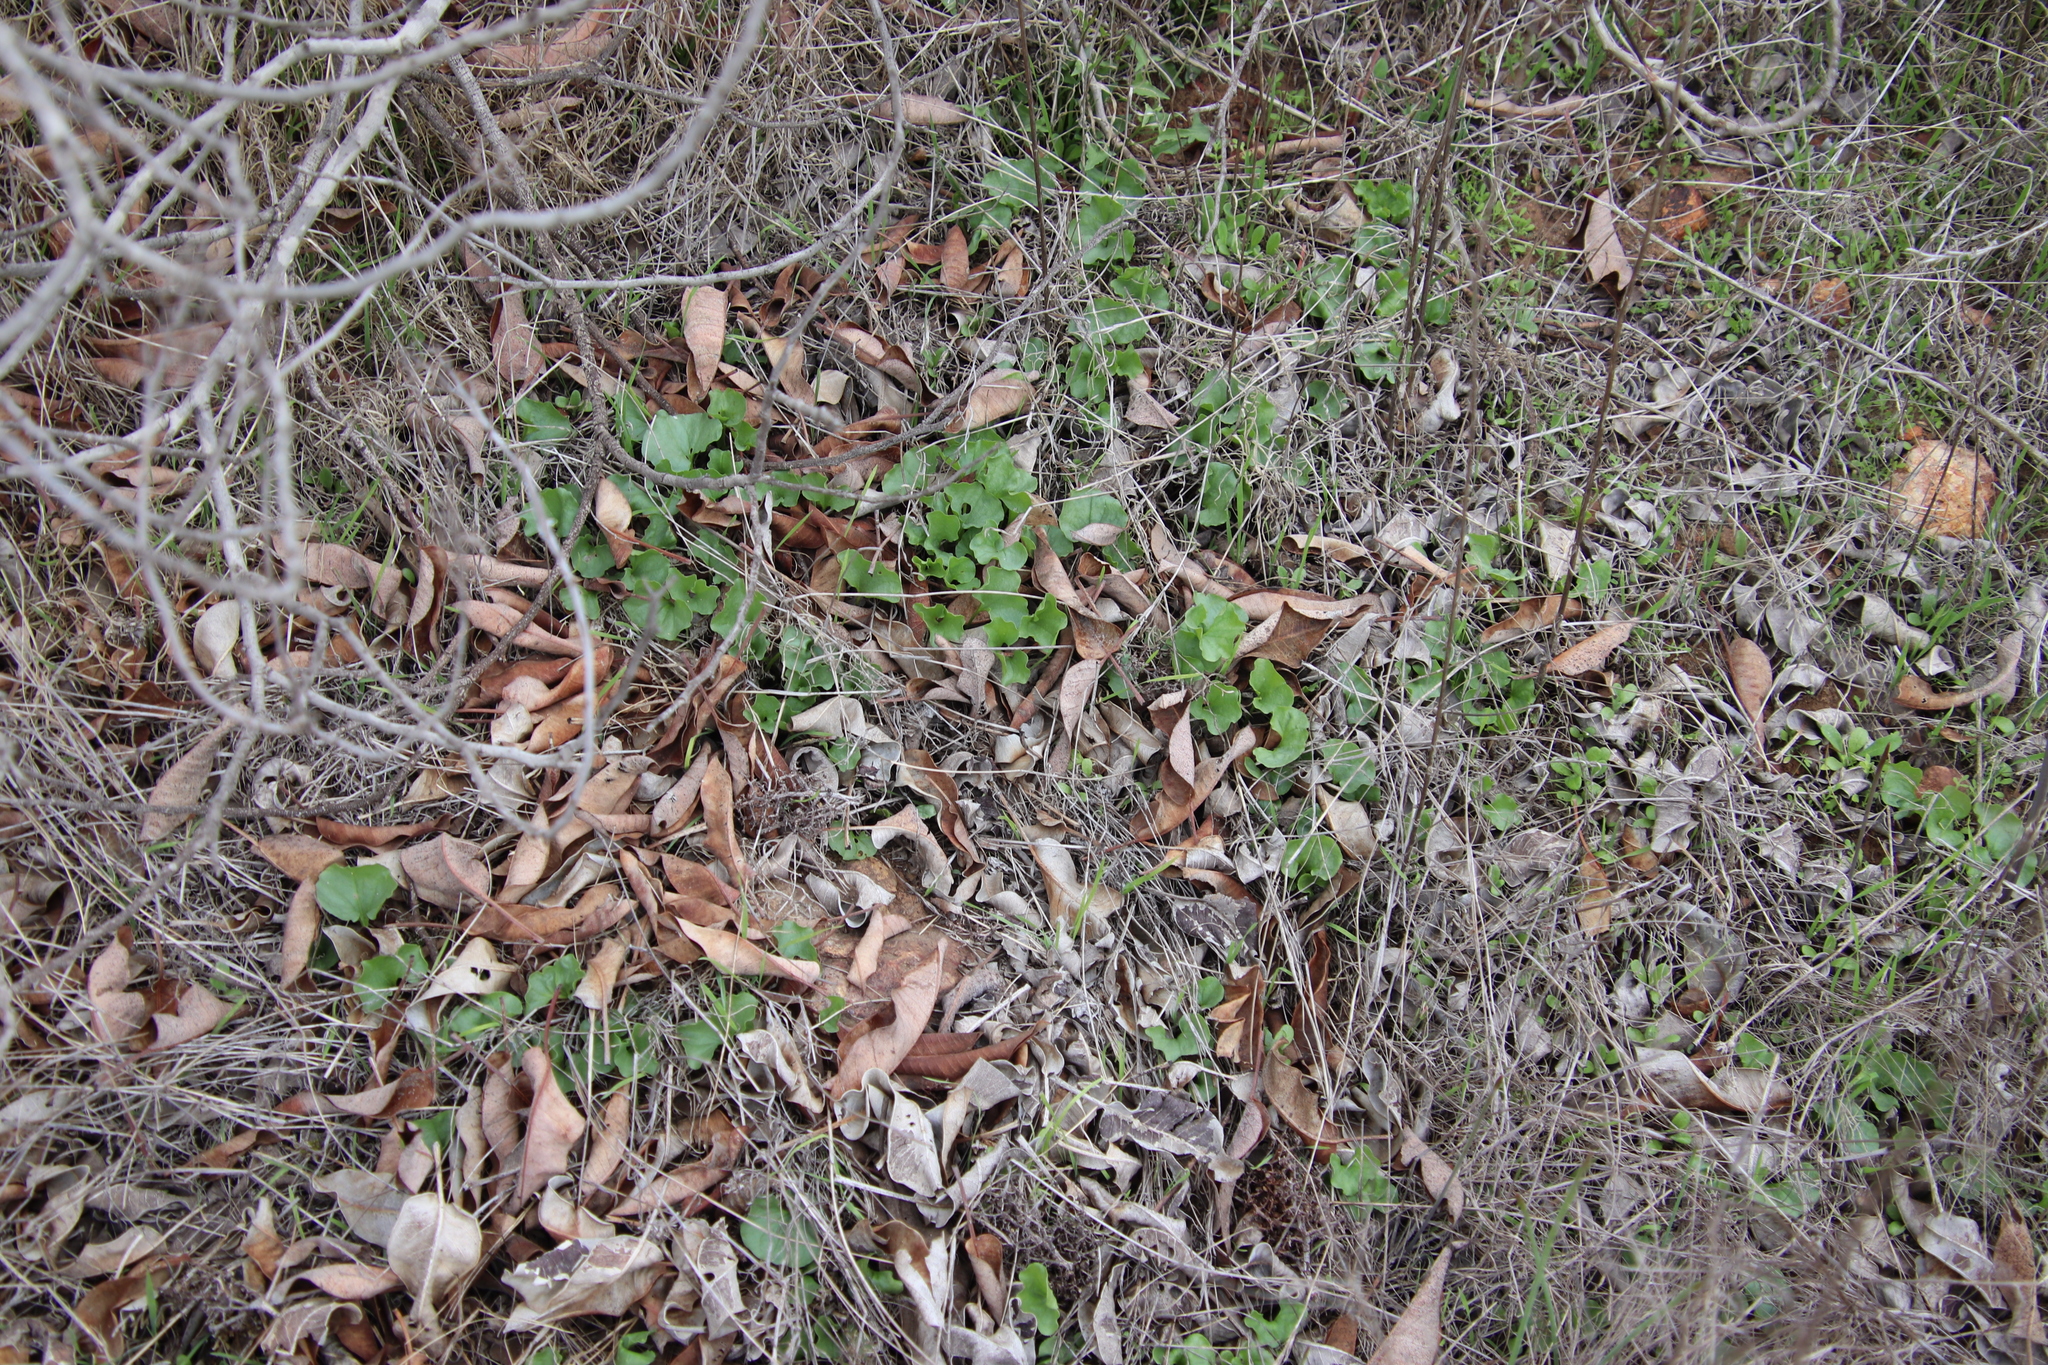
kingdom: Plantae
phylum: Tracheophyta
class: Magnoliopsida
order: Solanales
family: Convolvulaceae
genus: Dichondra
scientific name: Dichondra occidentalis
